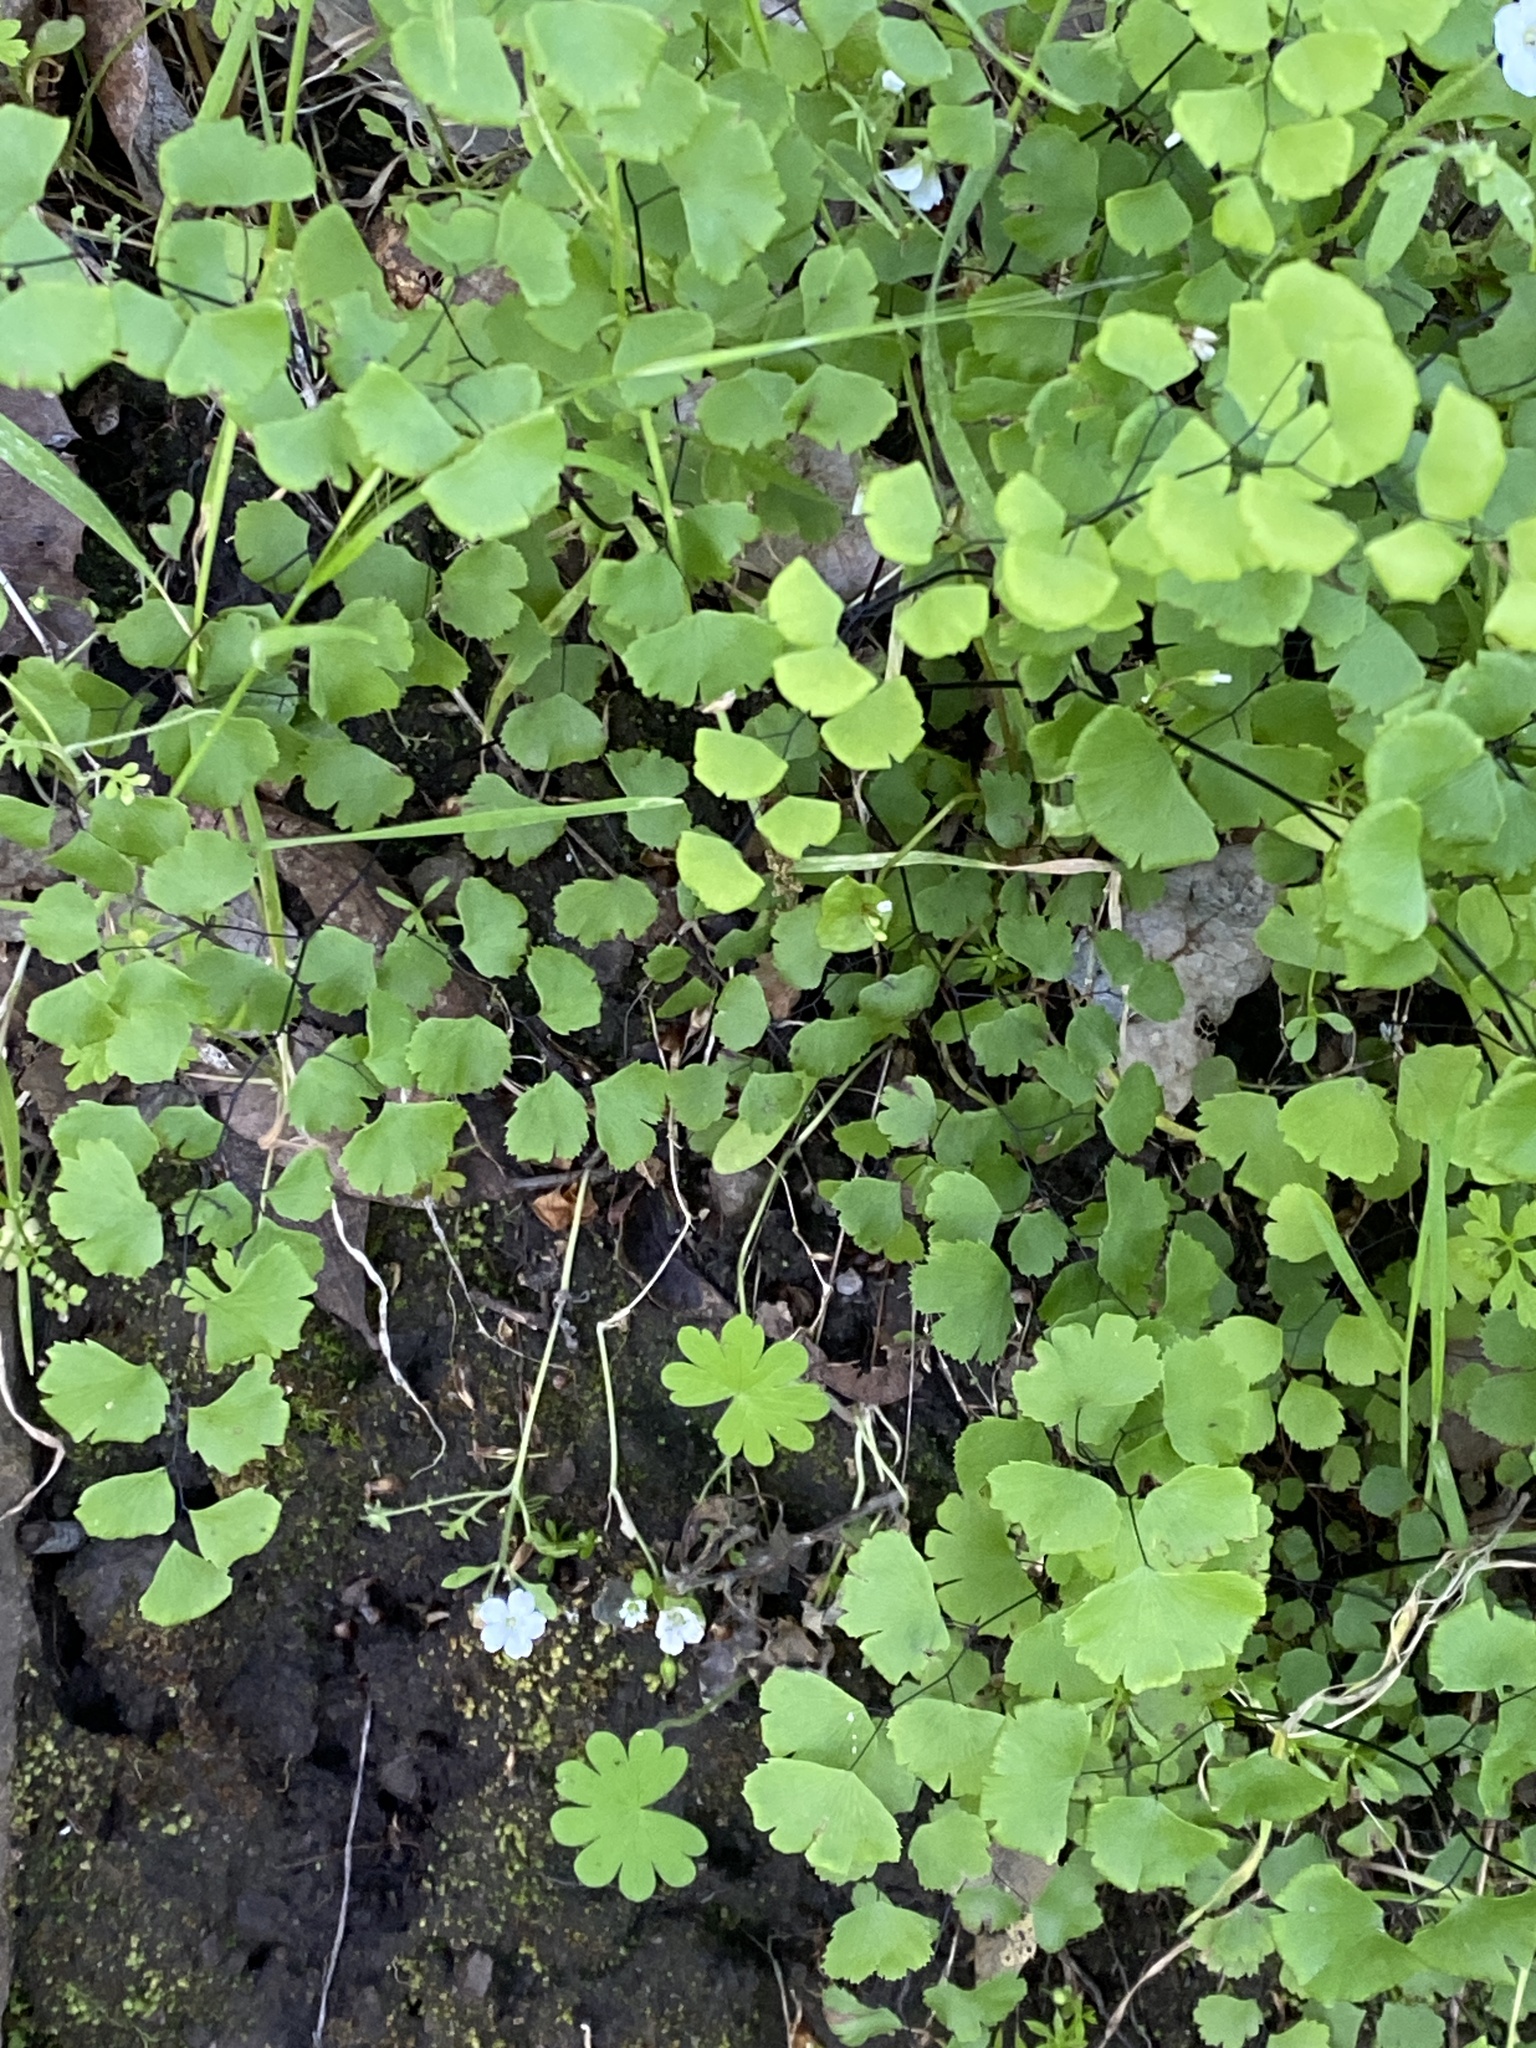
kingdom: Plantae
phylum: Tracheophyta
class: Polypodiopsida
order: Polypodiales
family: Pteridaceae
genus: Adiantum
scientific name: Adiantum jordanii
